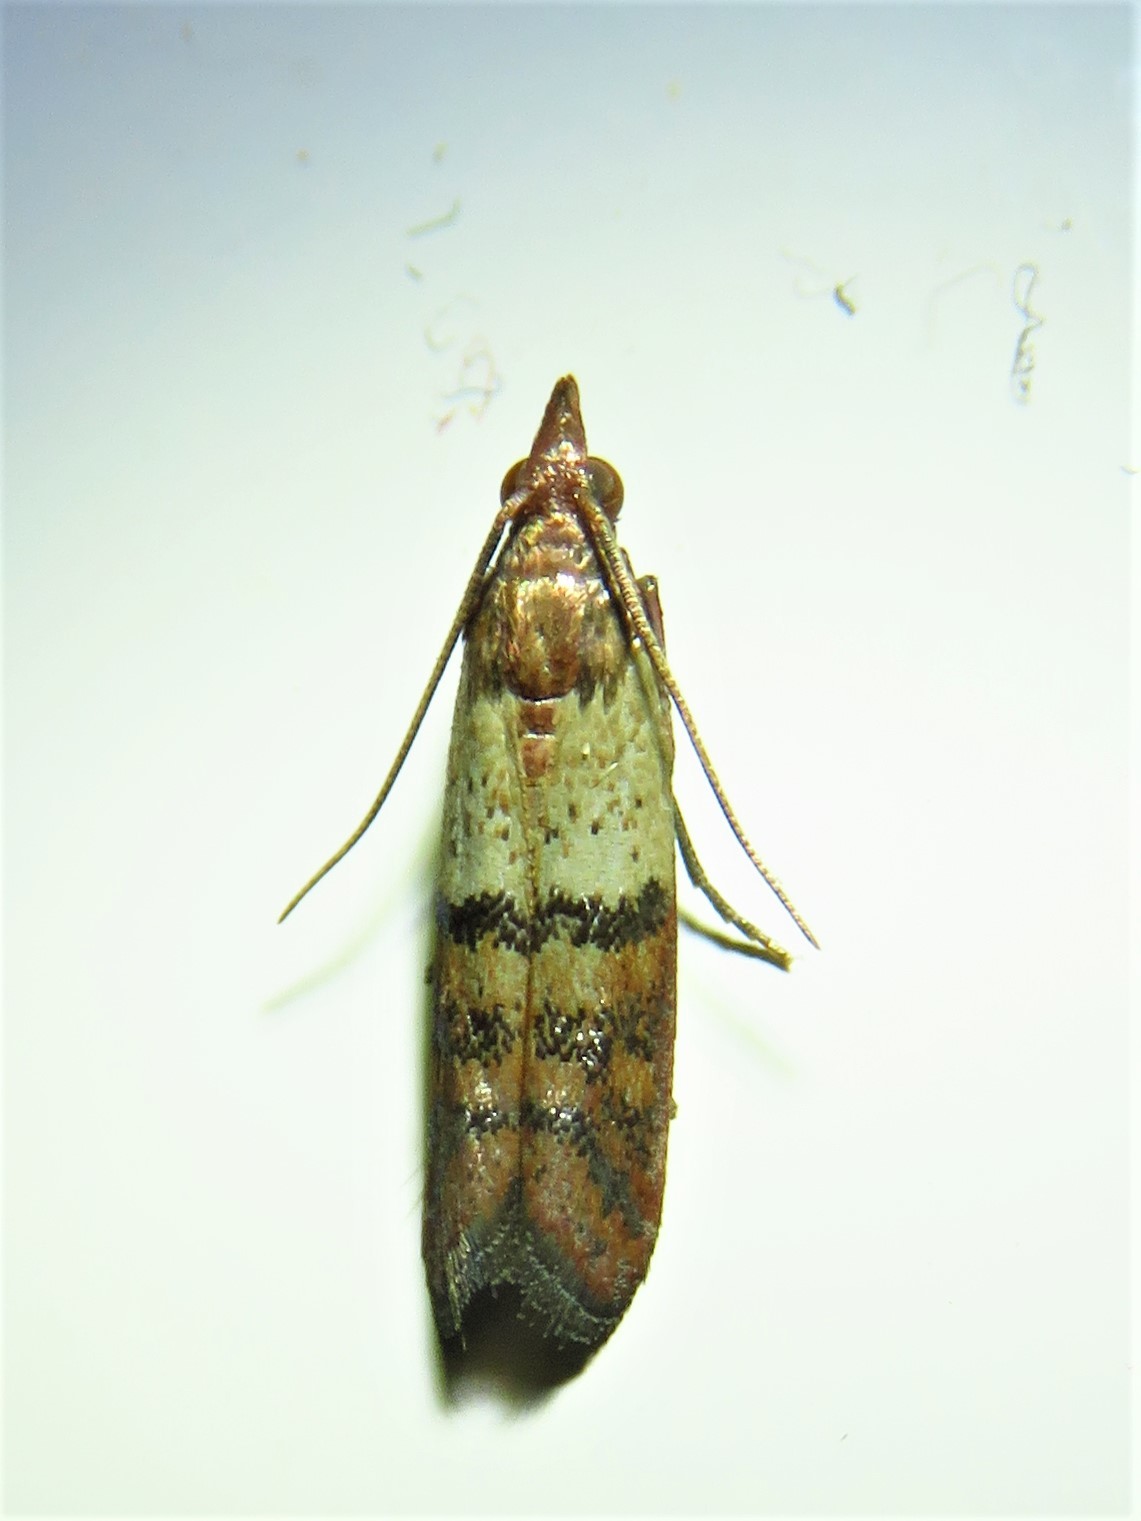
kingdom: Animalia
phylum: Arthropoda
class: Insecta
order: Lepidoptera
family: Pyralidae
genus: Plodia
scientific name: Plodia interpunctella
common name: Indian meal moth
